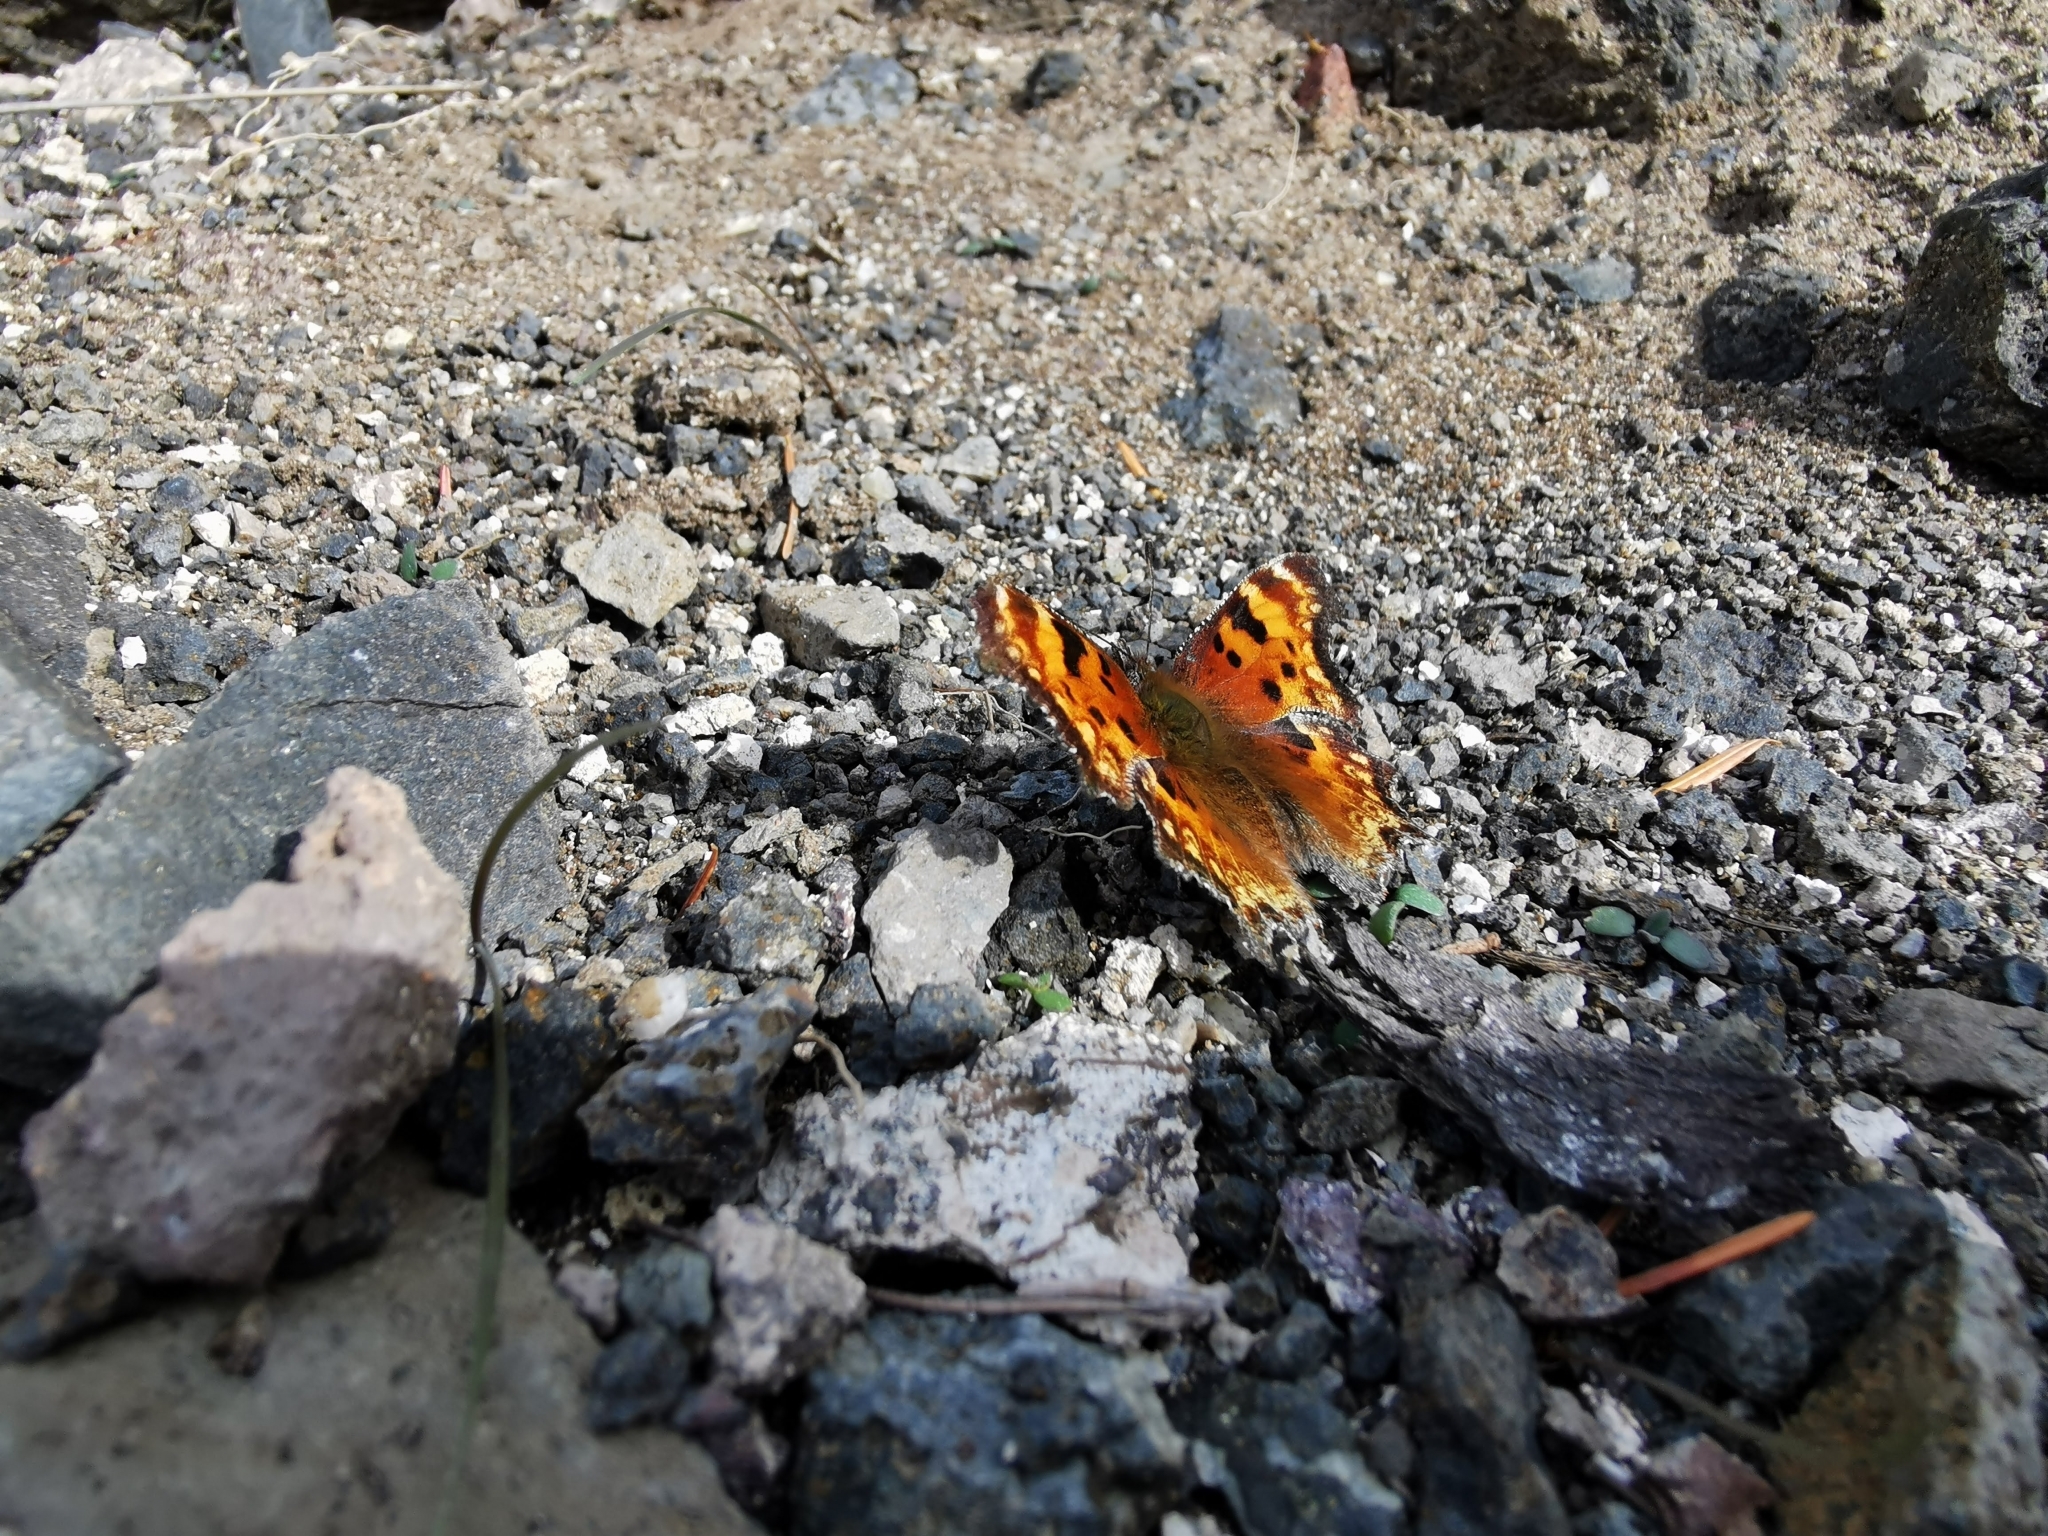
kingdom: Animalia
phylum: Arthropoda
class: Insecta
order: Lepidoptera
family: Nymphalidae
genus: Polygonia
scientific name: Polygonia gracilis
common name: Hoary comma
